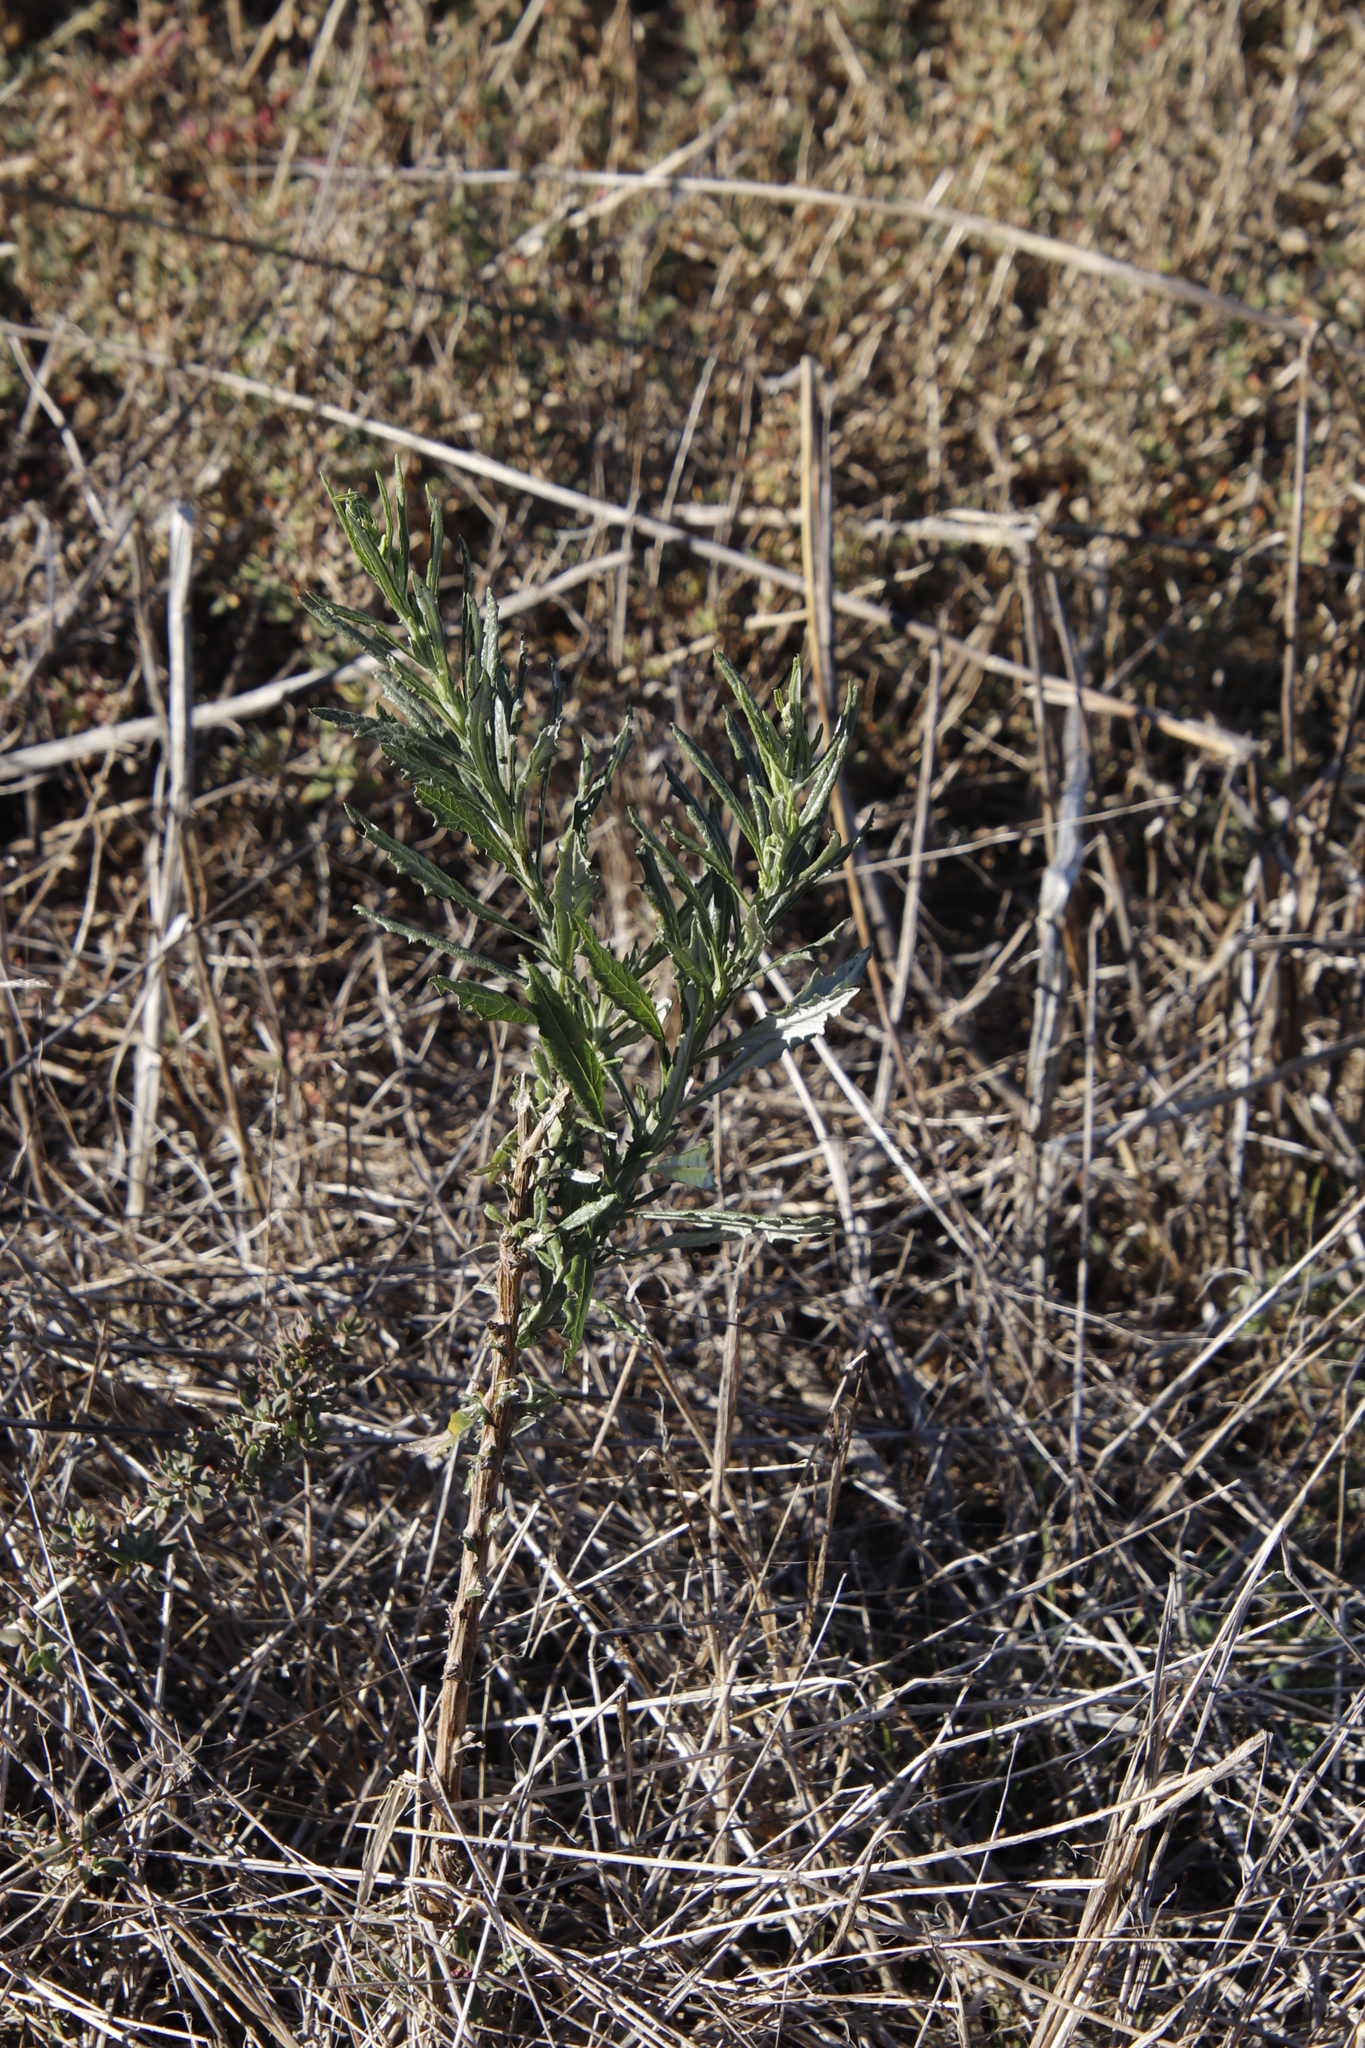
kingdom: Plantae
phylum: Tracheophyta
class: Magnoliopsida
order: Asterales
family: Asteraceae
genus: Senecio
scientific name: Senecio pterophorus
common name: Shoddy ragwort
